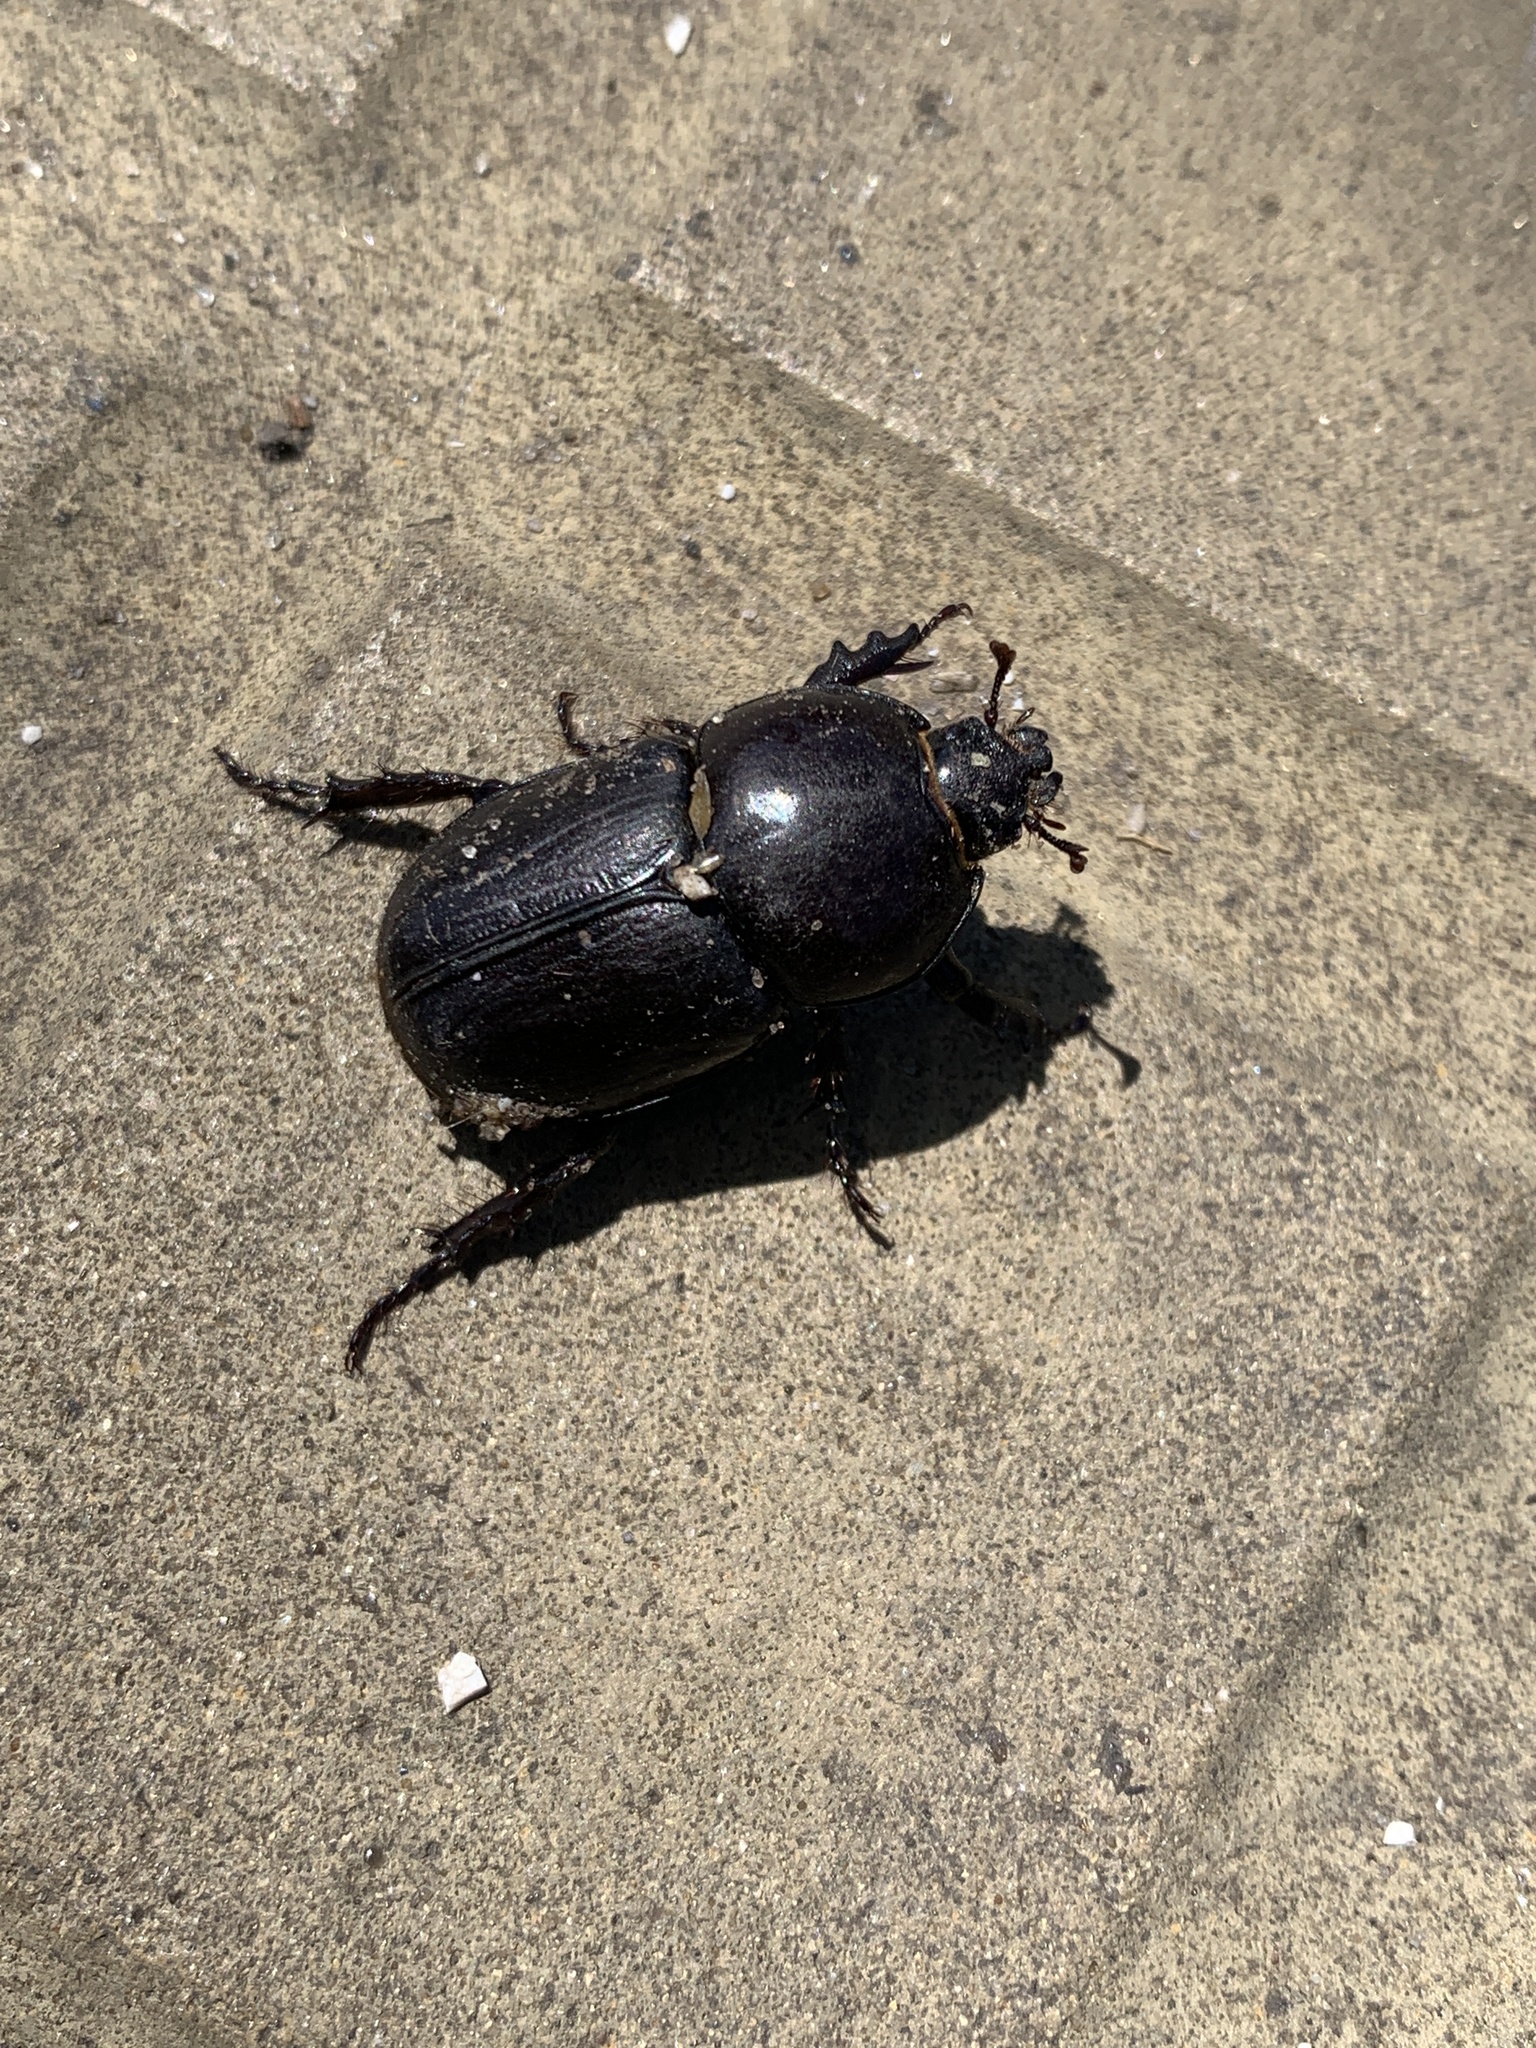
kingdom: Animalia
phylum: Arthropoda
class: Insecta
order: Coleoptera
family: Scarabaeidae
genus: Diloboderus
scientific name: Diloboderus abderus
